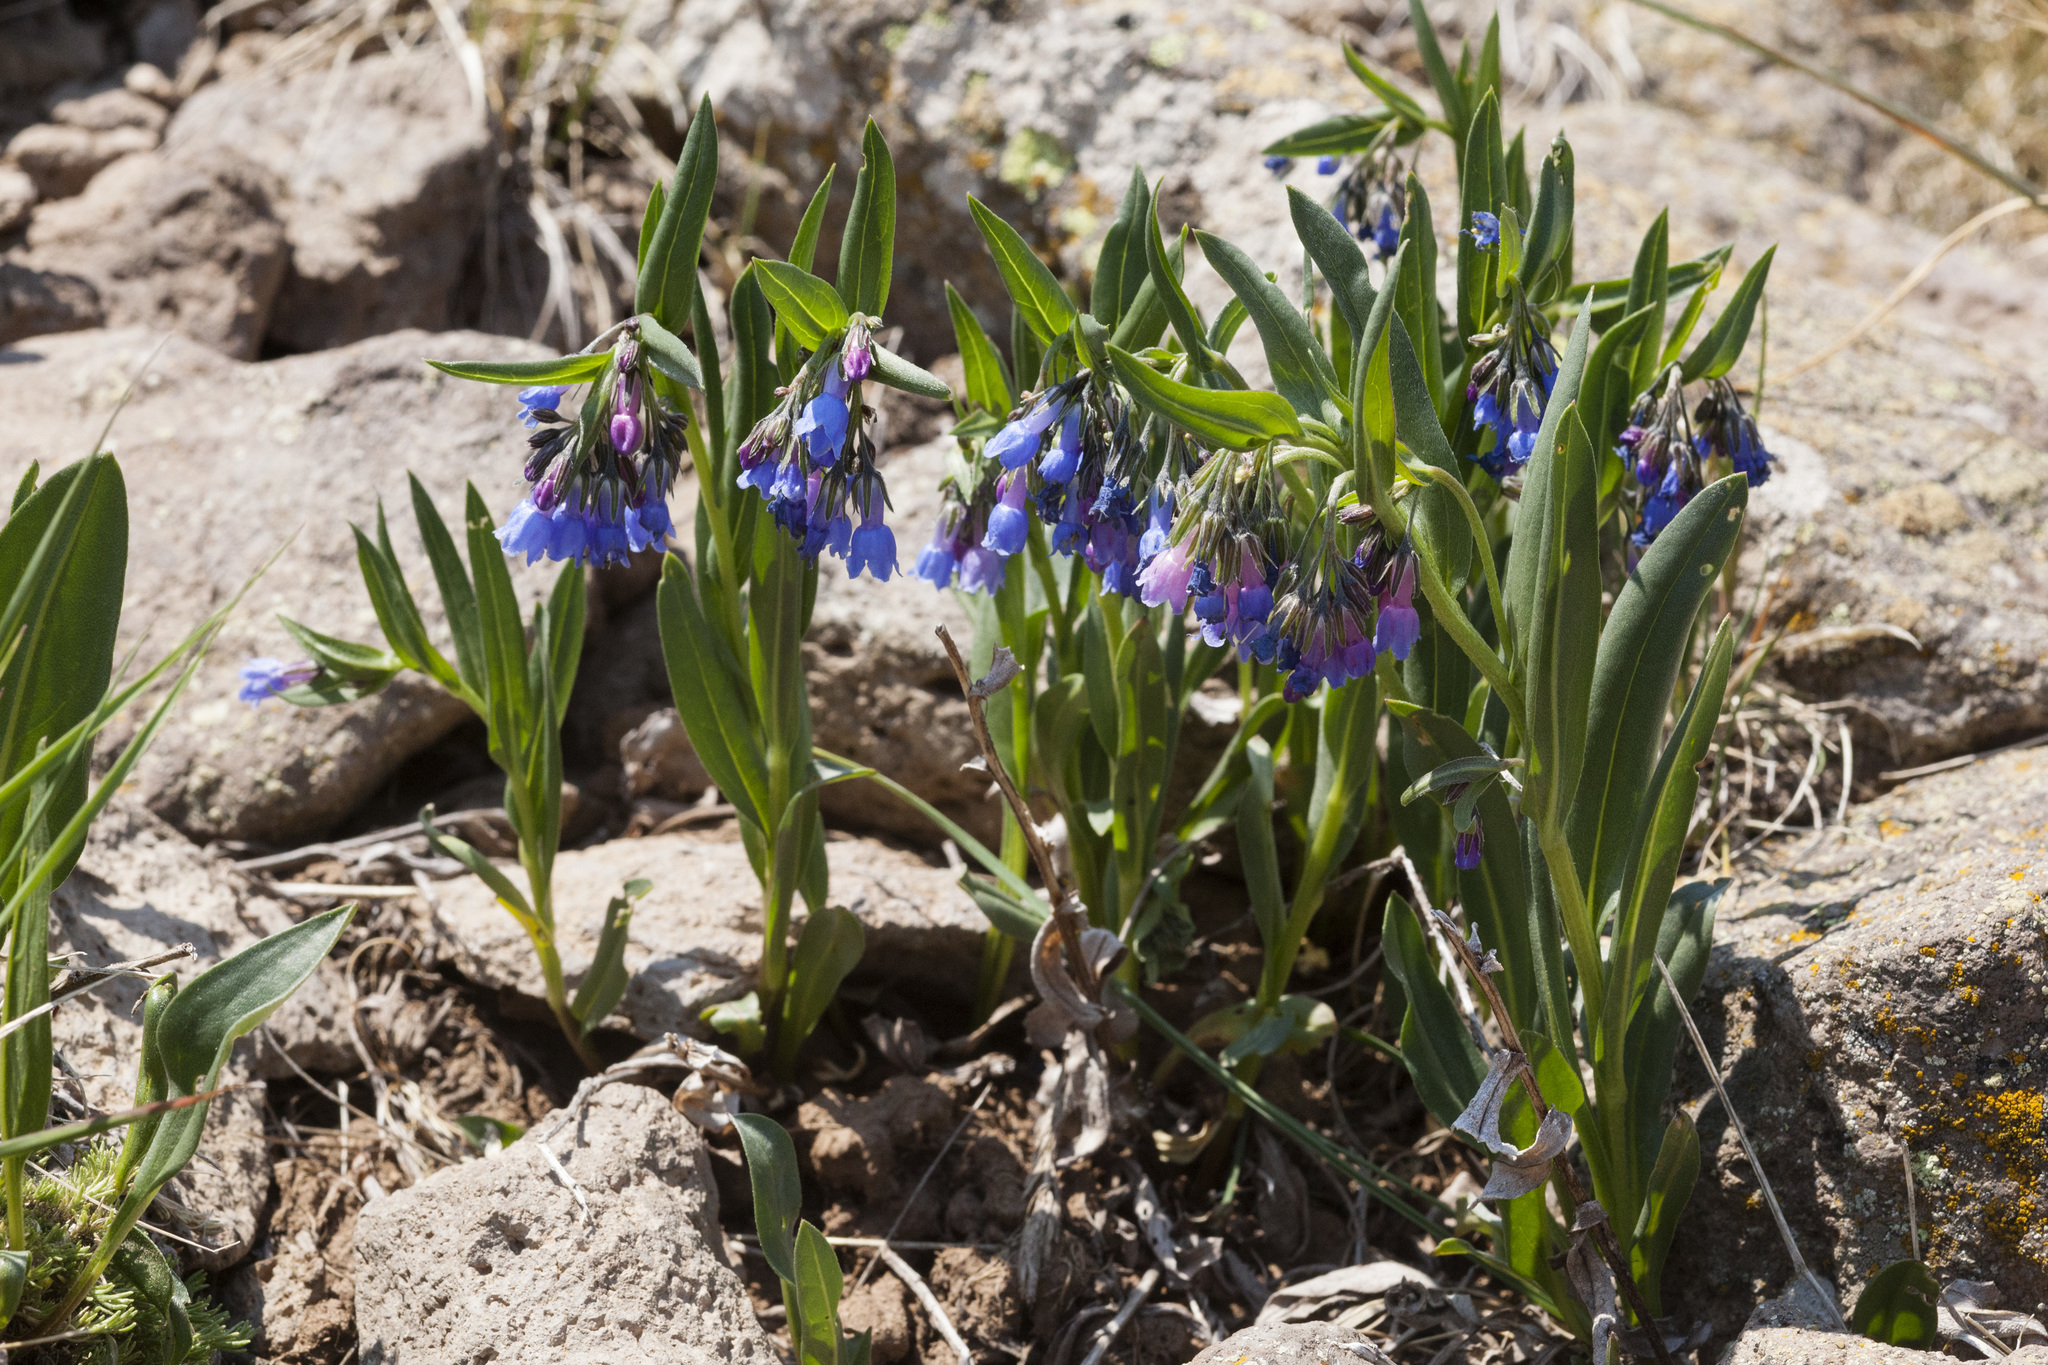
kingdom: Plantae
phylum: Tracheophyta
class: Magnoliopsida
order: Boraginales
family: Boraginaceae
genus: Mertensia
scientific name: Mertensia bakeri
